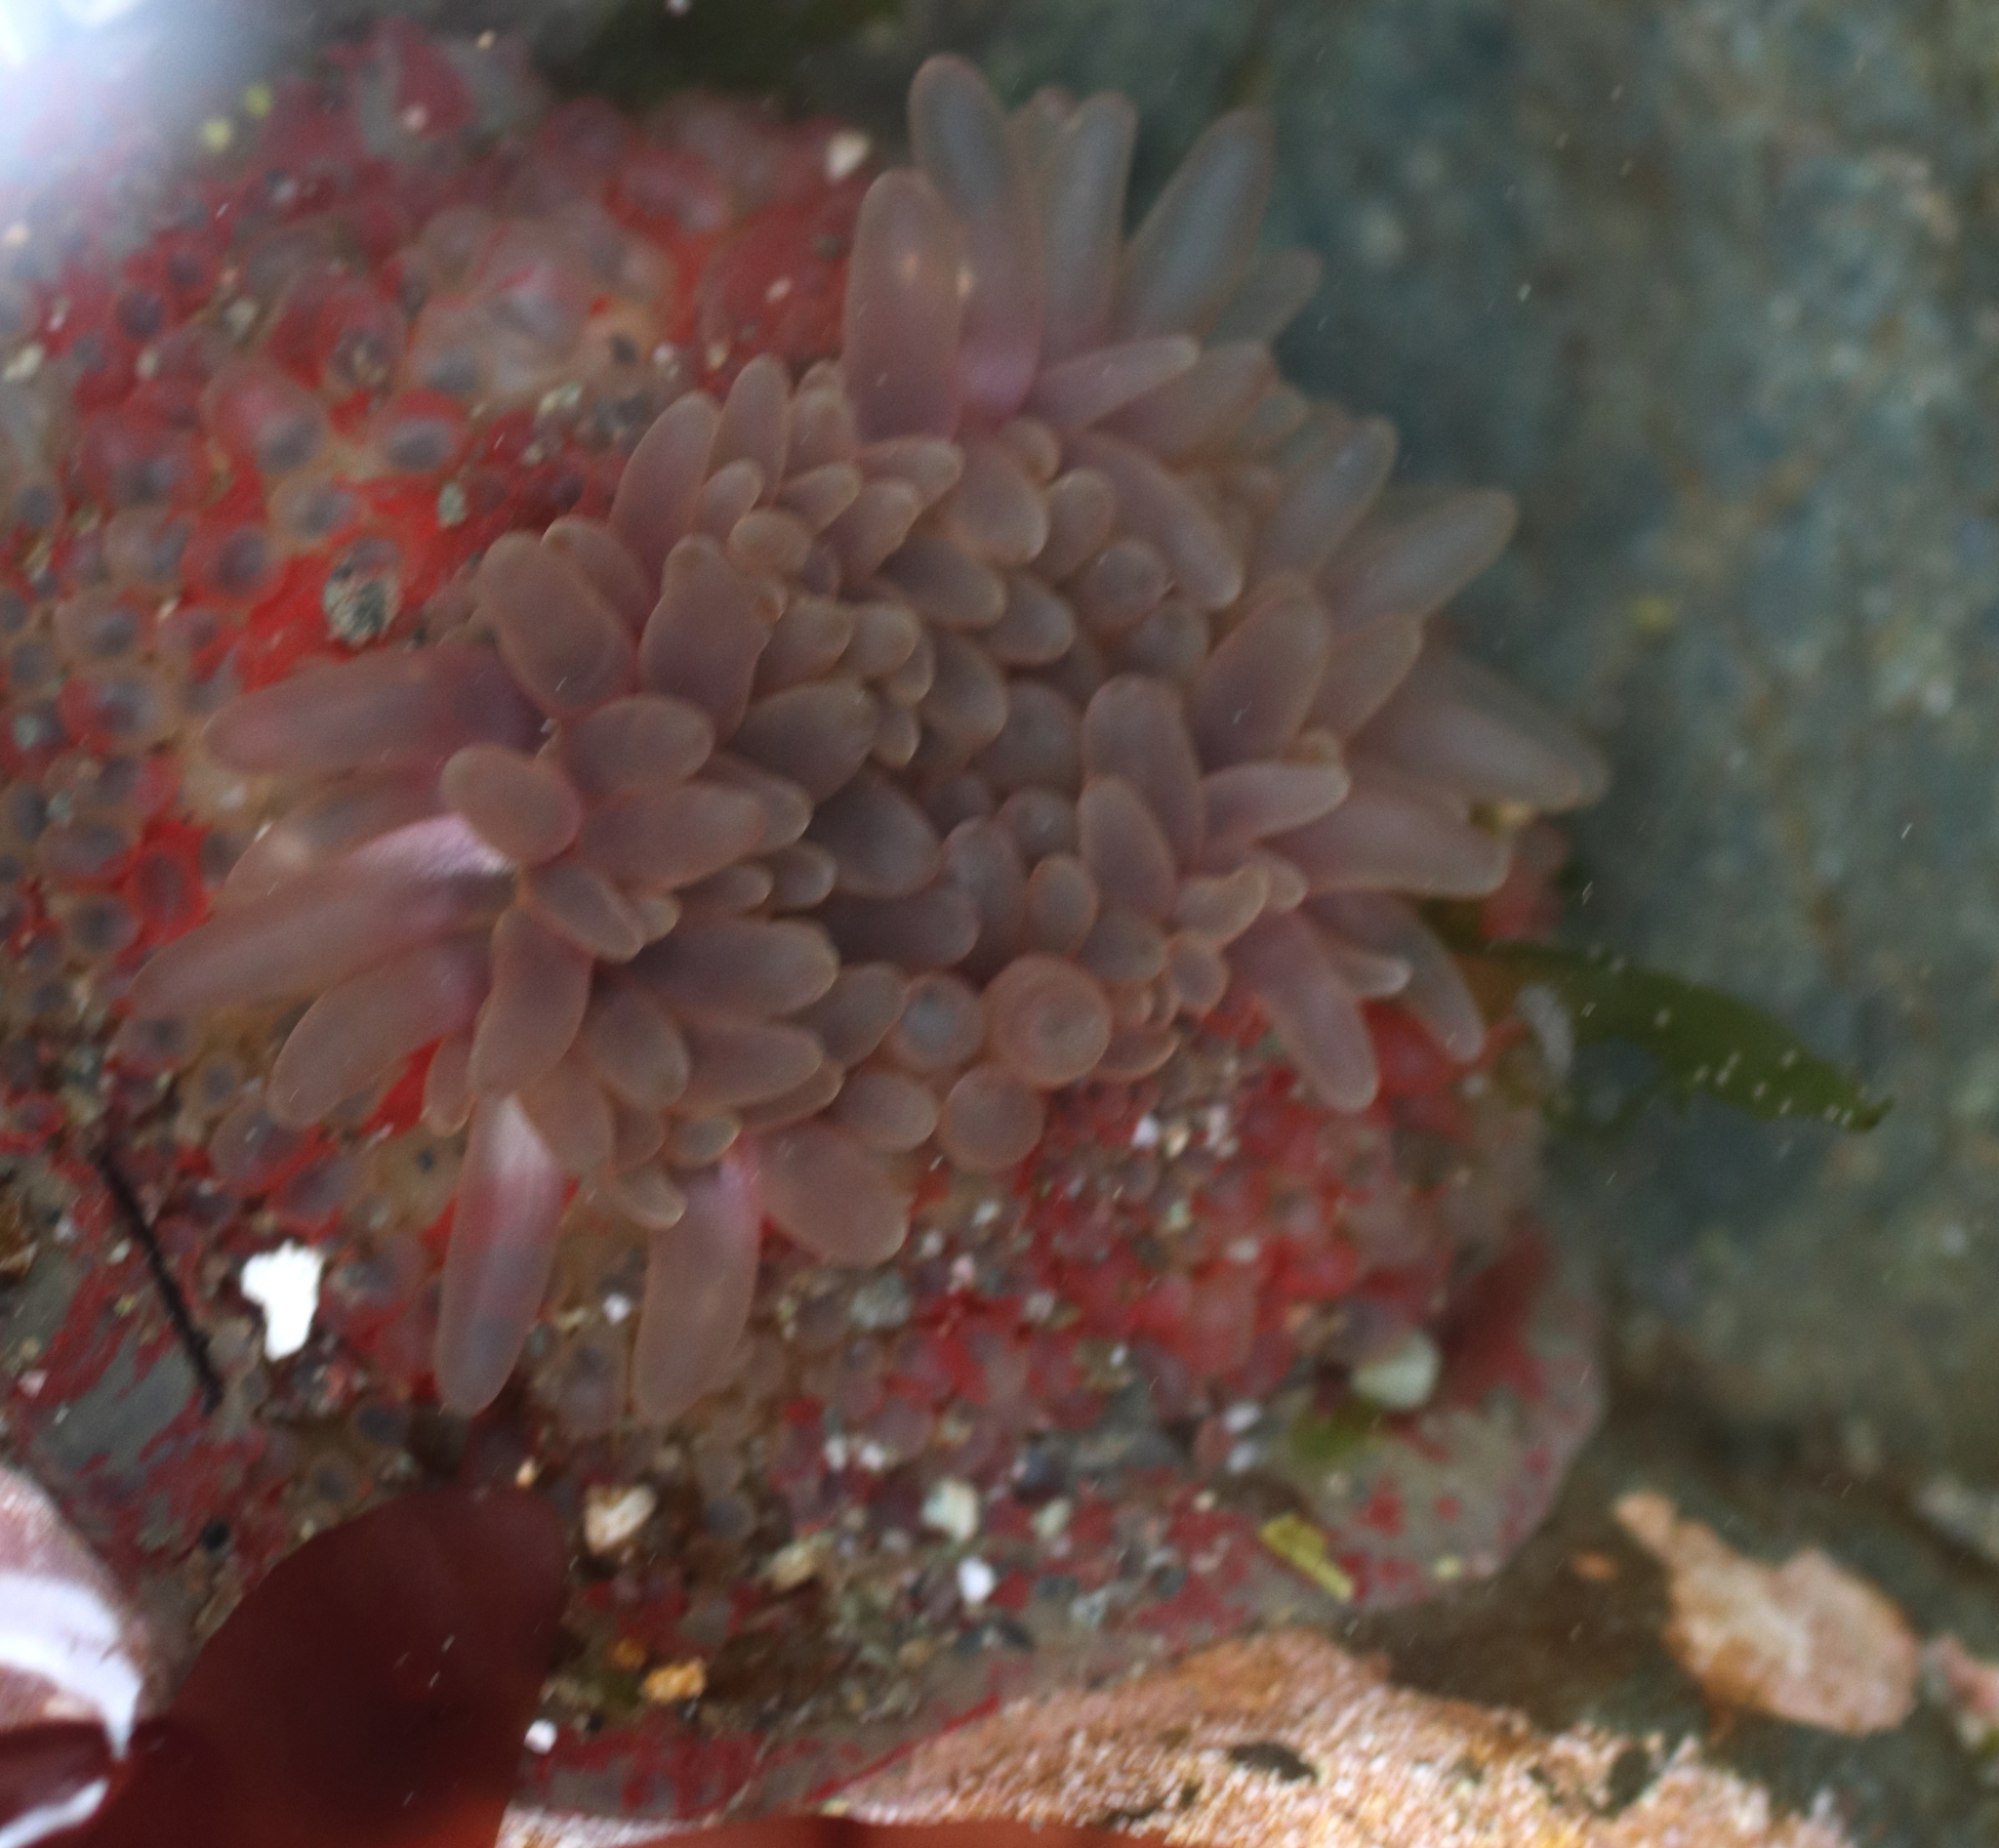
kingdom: Animalia
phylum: Cnidaria
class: Anthozoa
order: Actiniaria
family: Actiniidae
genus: Urticina
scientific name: Urticina grebelnyi
